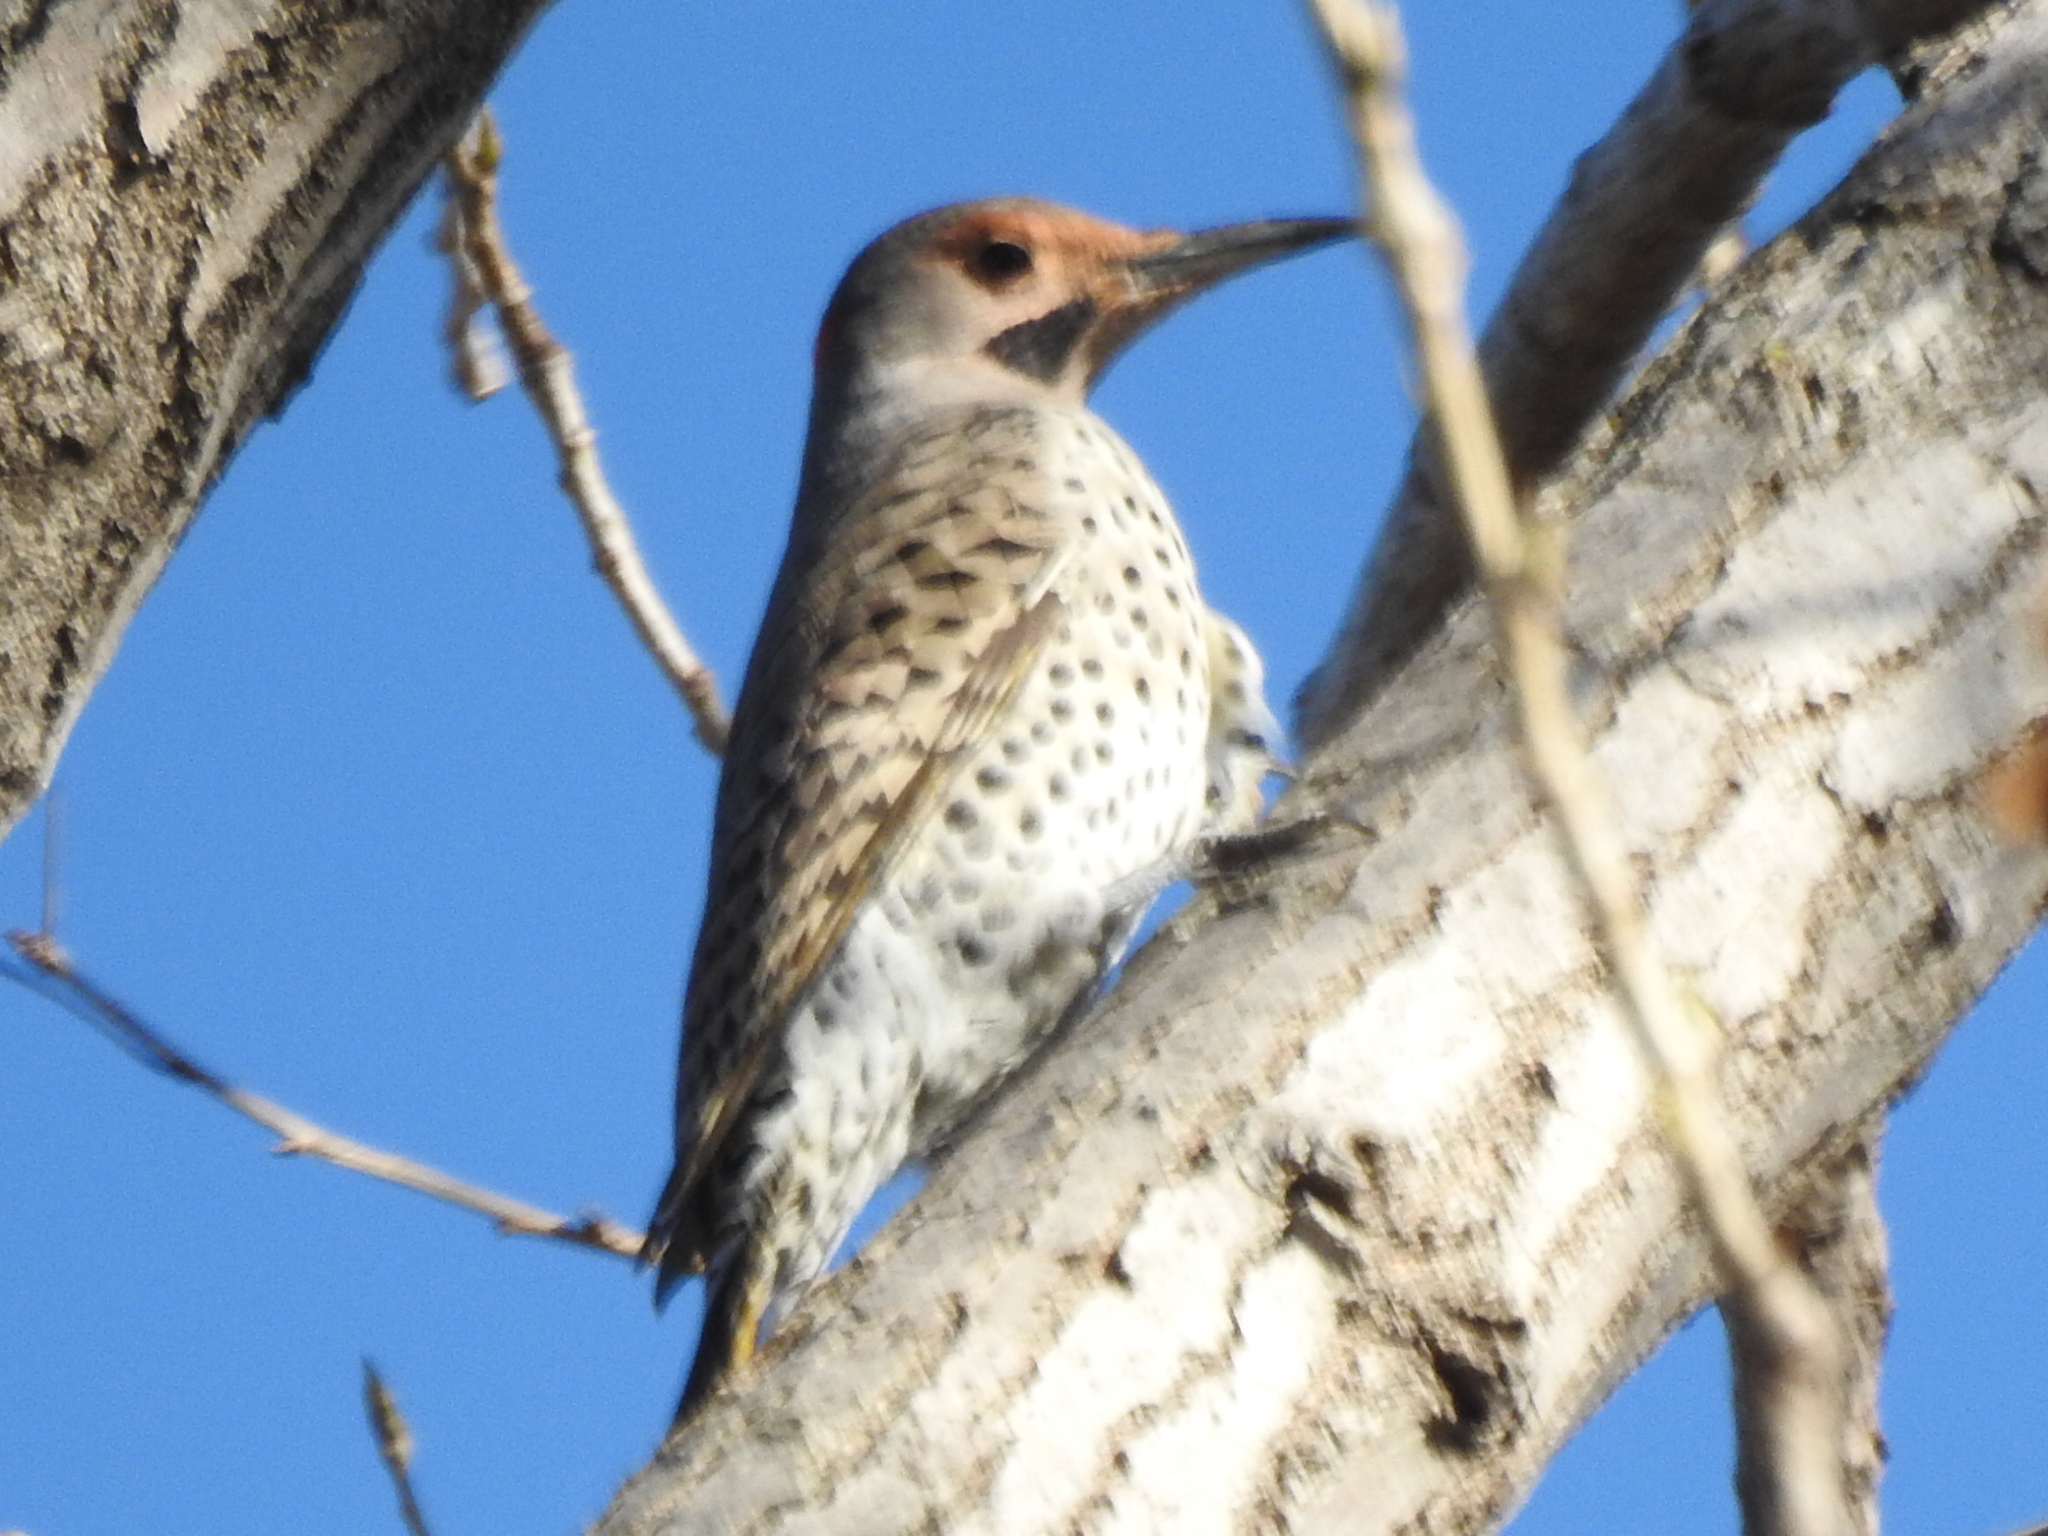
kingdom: Animalia
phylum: Chordata
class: Aves
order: Piciformes
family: Picidae
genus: Colaptes
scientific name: Colaptes auratus
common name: Northern flicker
